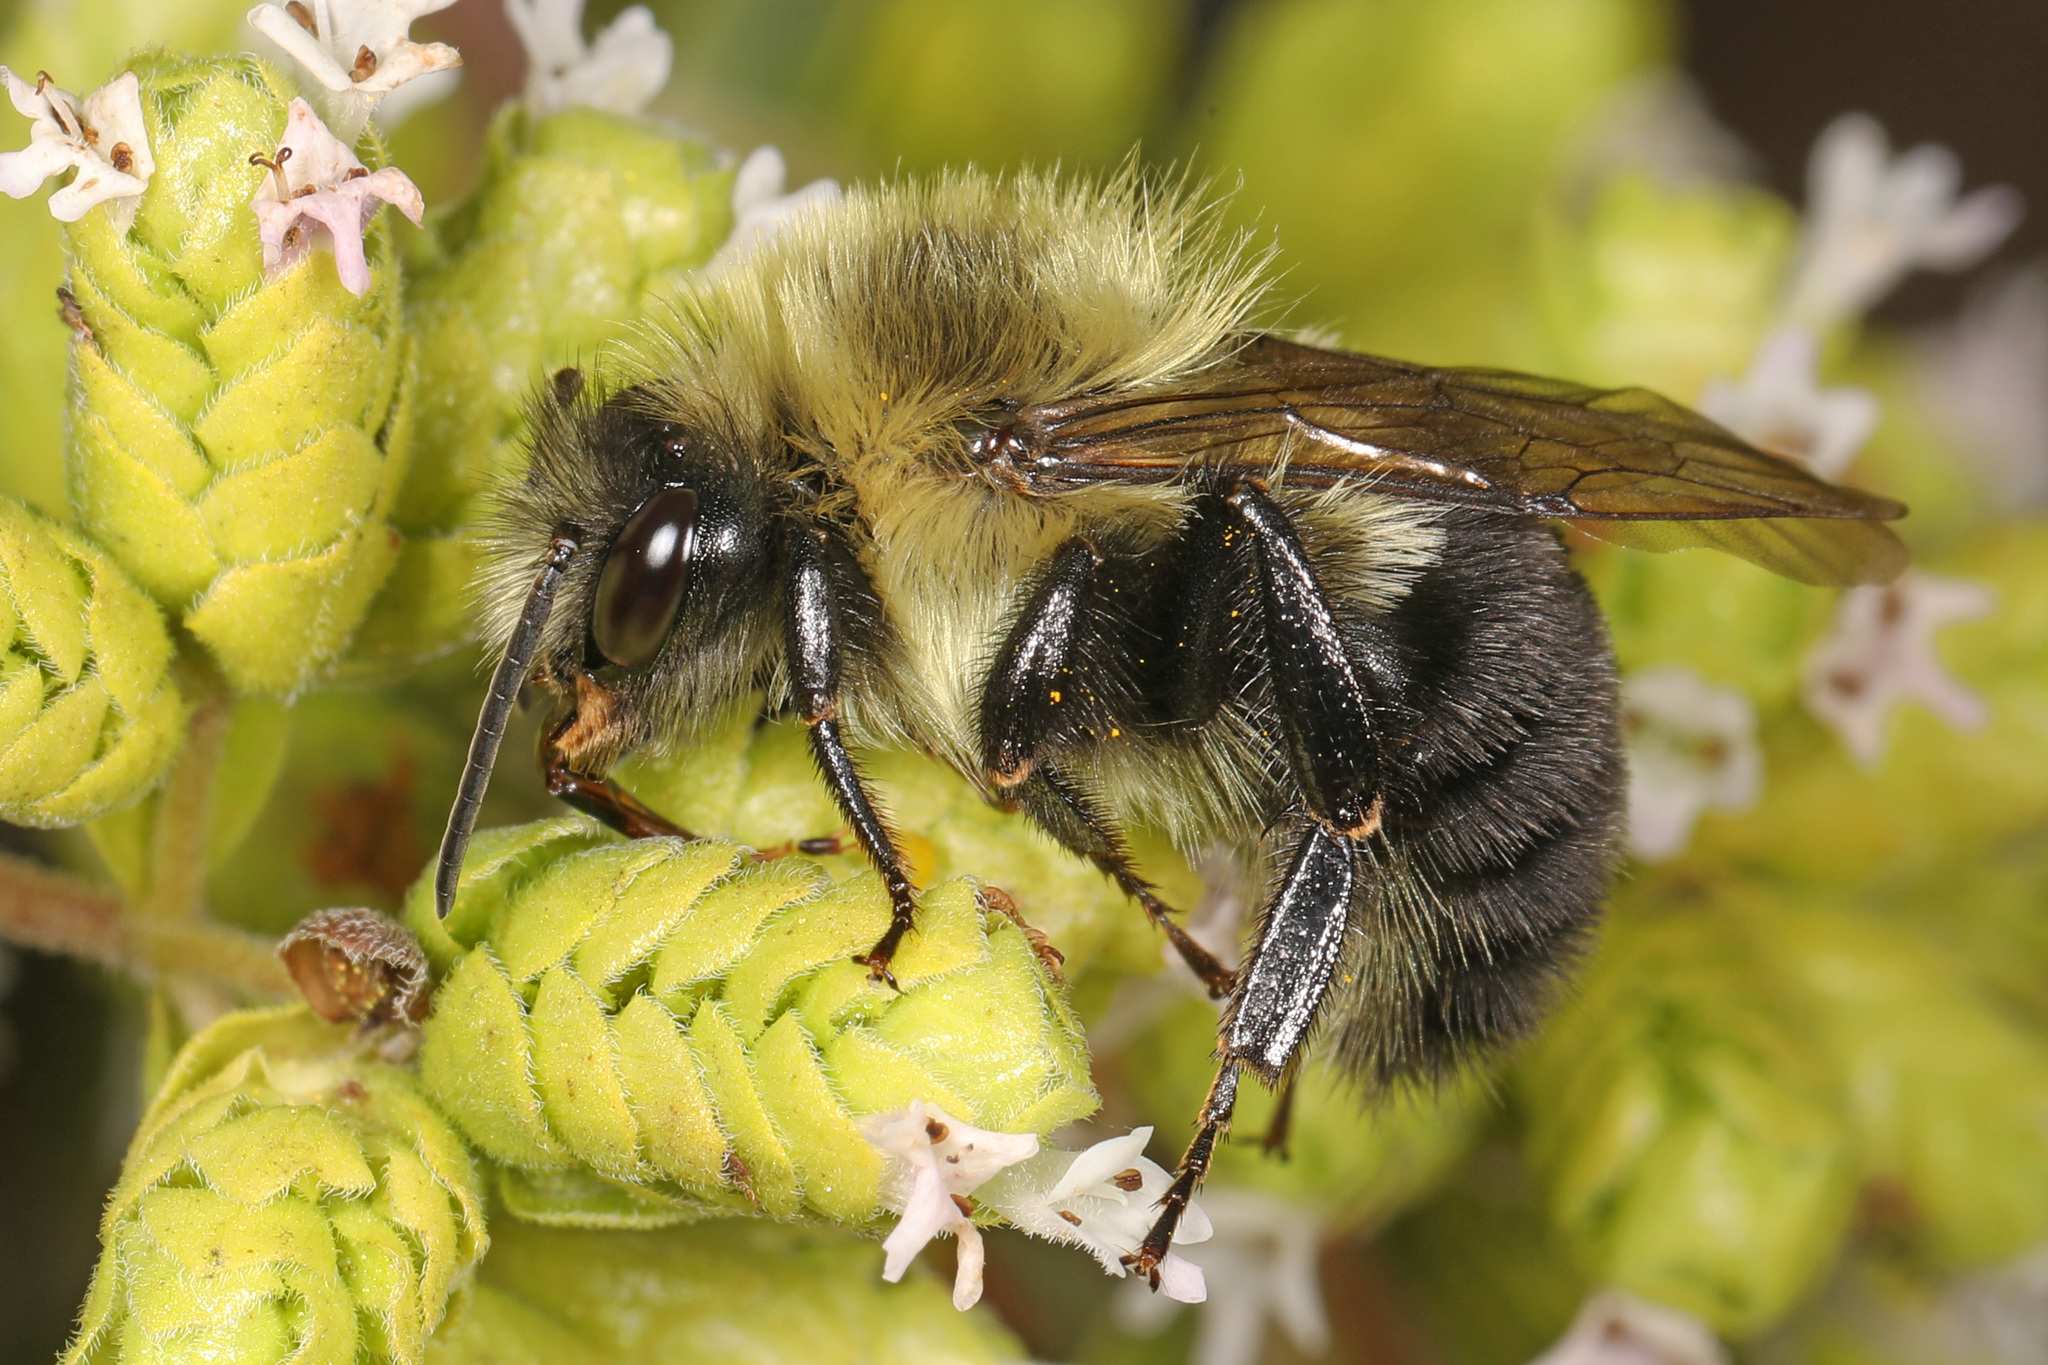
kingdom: Animalia
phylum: Arthropoda
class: Insecta
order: Hymenoptera
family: Apidae
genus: Bombus
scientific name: Bombus impatiens
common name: Common eastern bumble bee
